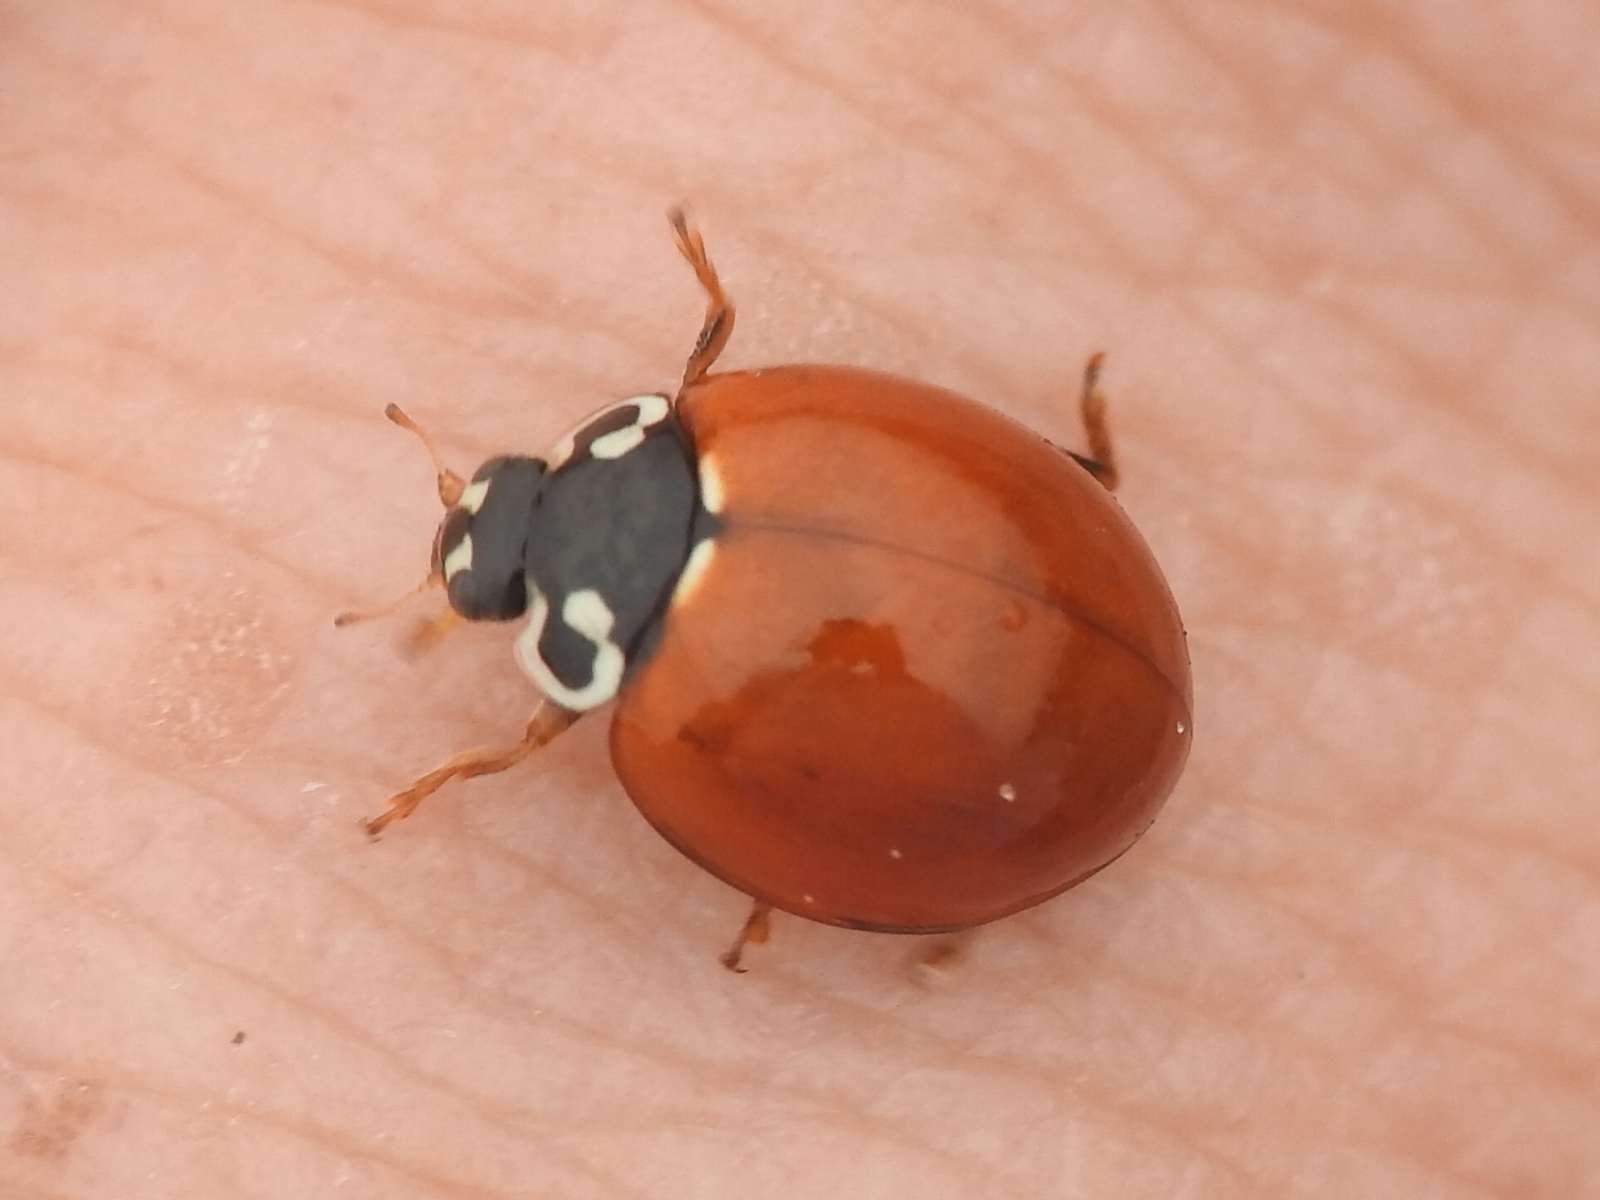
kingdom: Animalia
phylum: Arthropoda
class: Insecta
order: Coleoptera
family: Coccinellidae
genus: Cycloneda
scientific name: Cycloneda sanguinea
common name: Ladybird beetle
